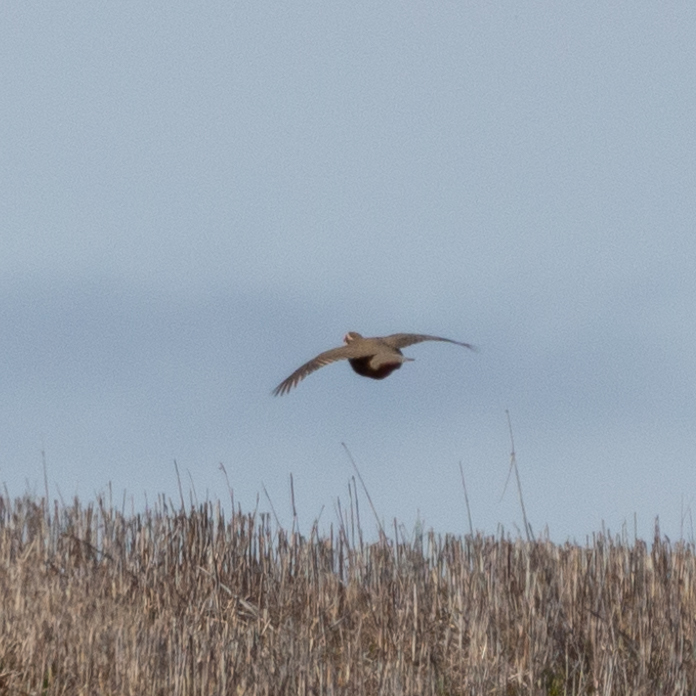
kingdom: Animalia
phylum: Chordata
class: Aves
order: Galliformes
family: Phasianidae
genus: Alectoris
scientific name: Alectoris rufa
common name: Red-legged partridge
